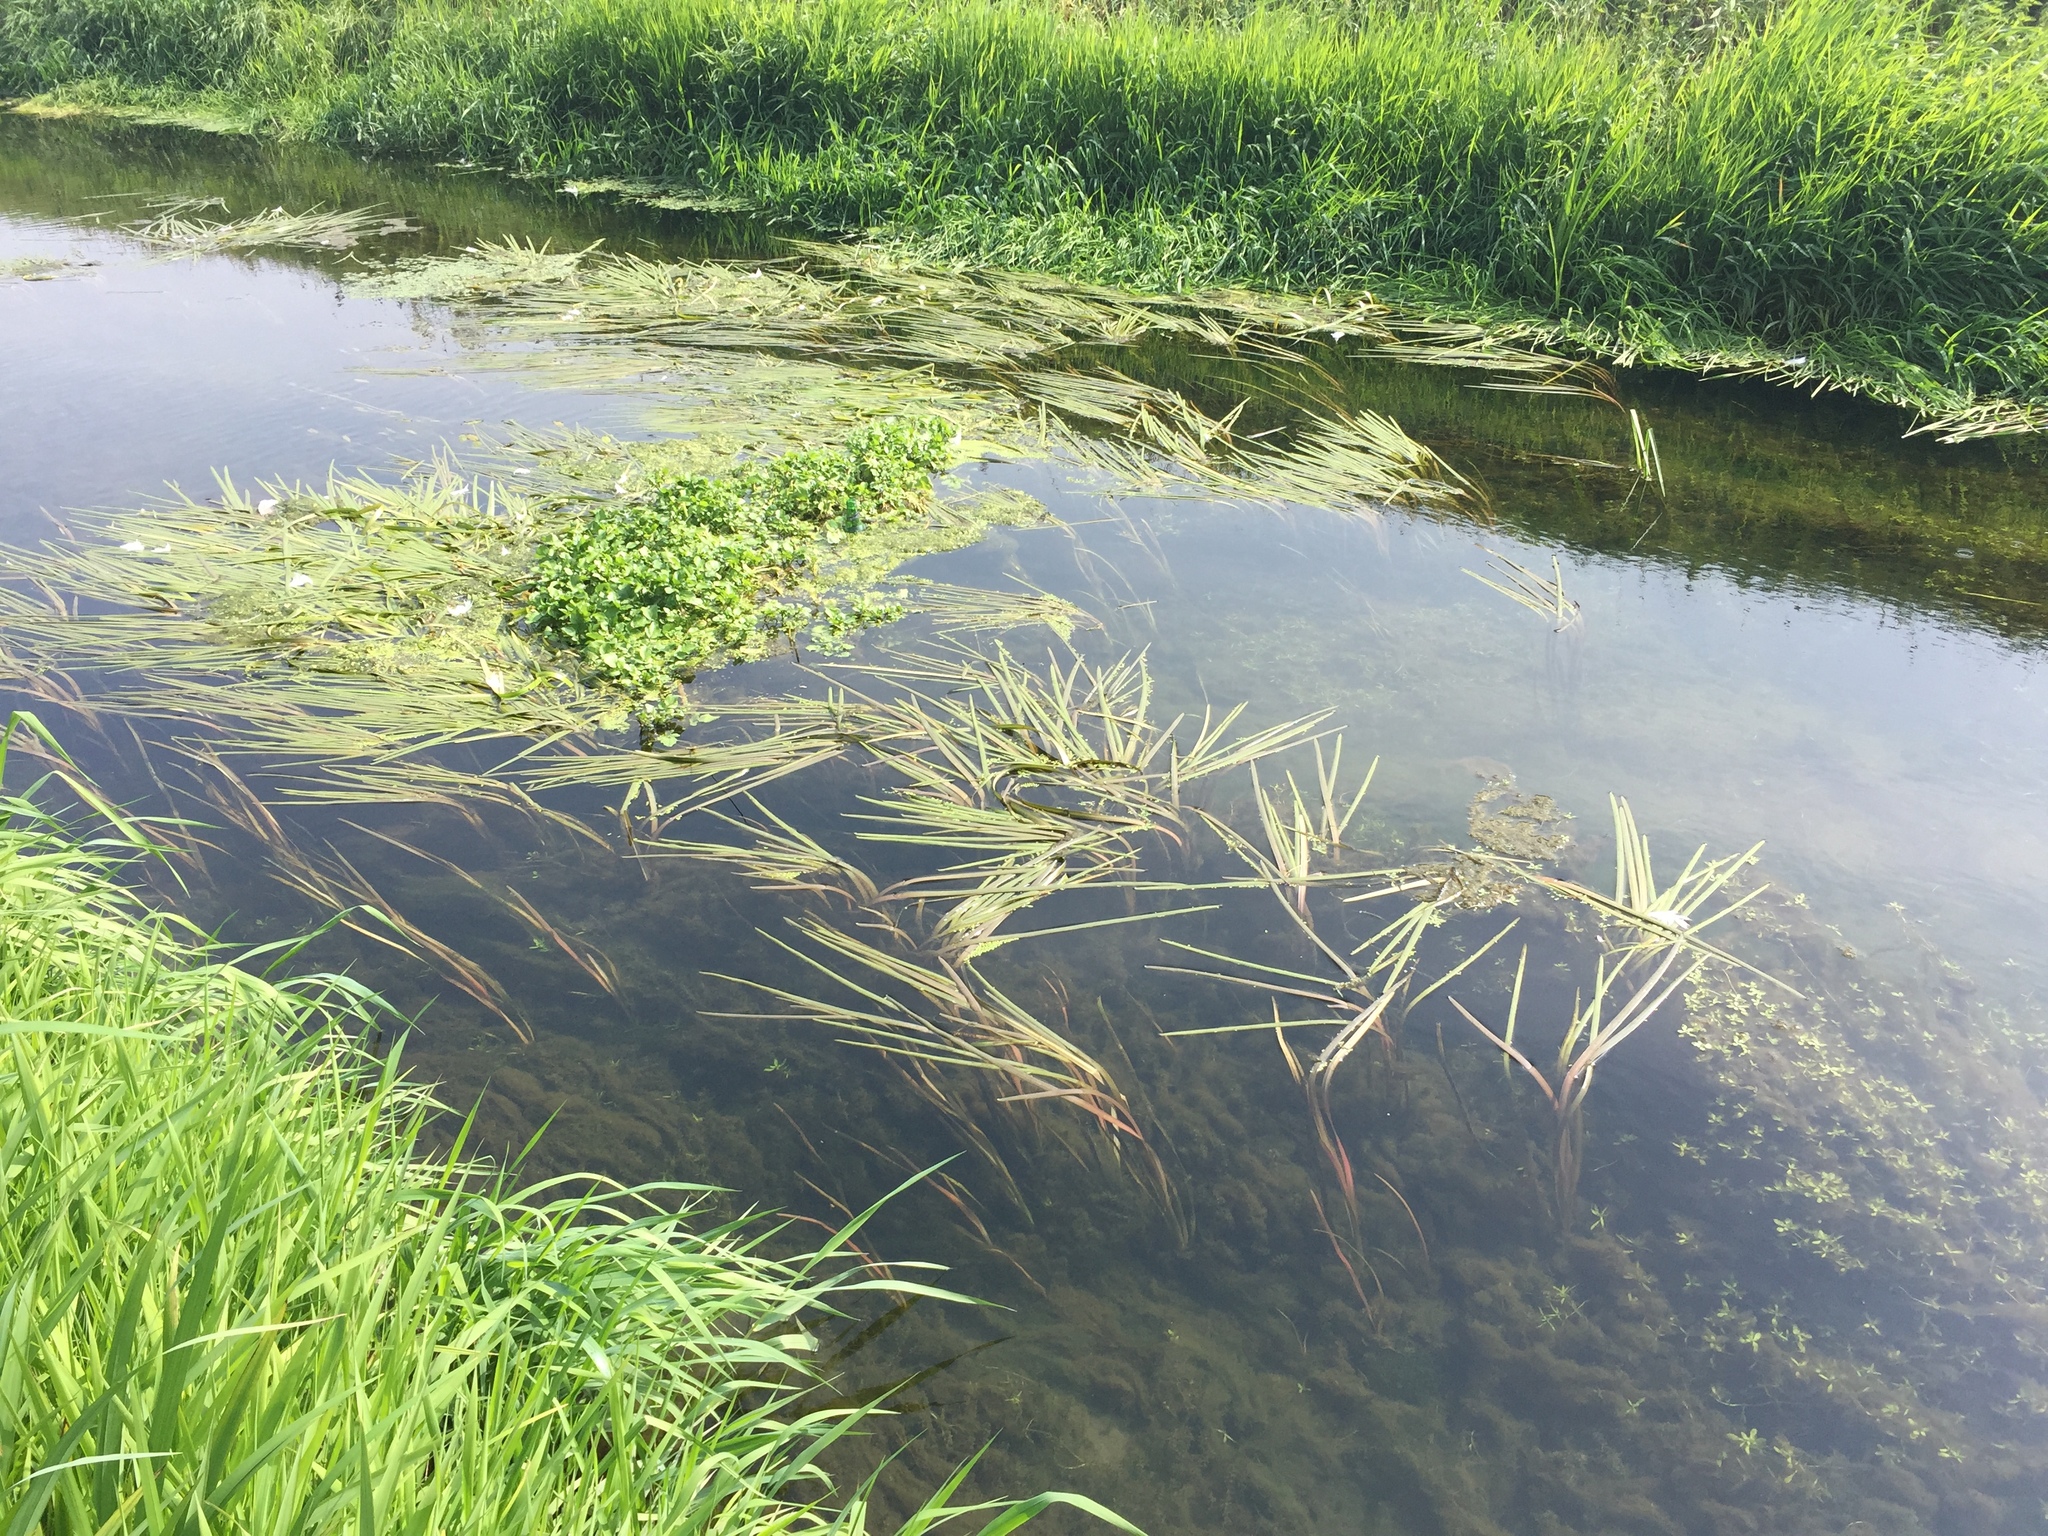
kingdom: Plantae
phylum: Tracheophyta
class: Liliopsida
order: Poales
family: Typhaceae
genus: Sparganium
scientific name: Sparganium emersum
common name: Unbranched bur-reed
